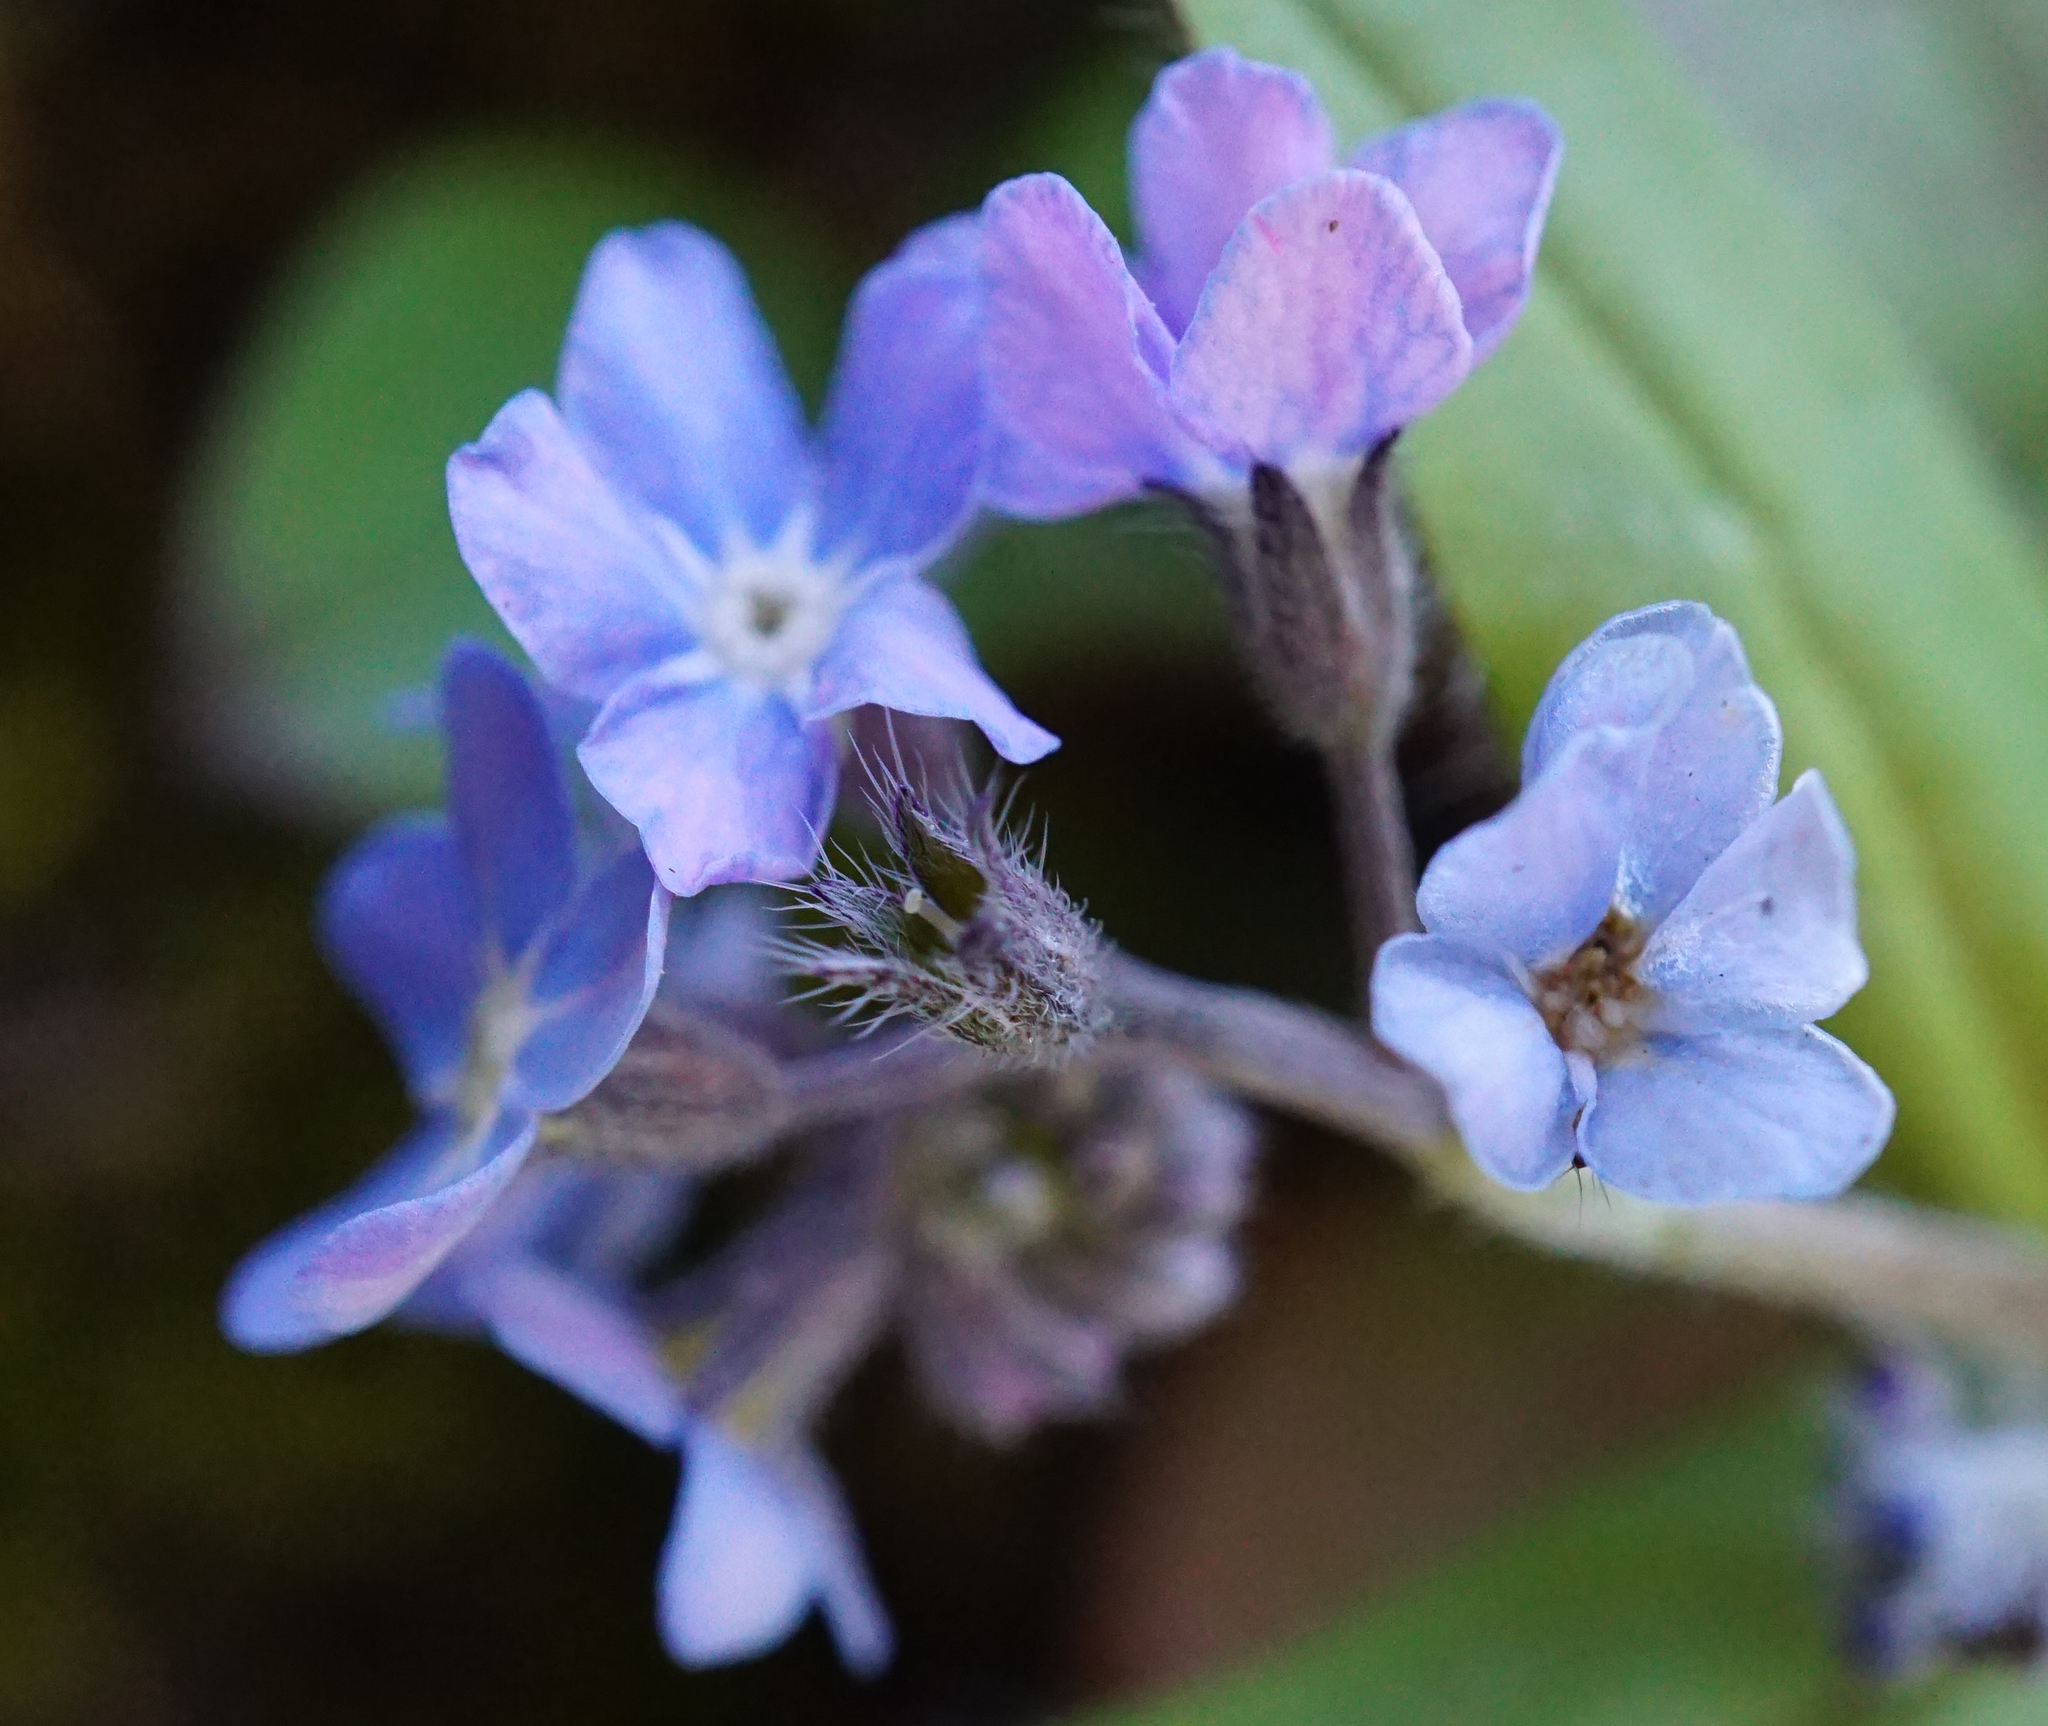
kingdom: Plantae
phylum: Tracheophyta
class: Magnoliopsida
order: Boraginales
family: Boraginaceae
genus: Myosotis
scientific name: Myosotis sylvatica
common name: Wood forget-me-not
